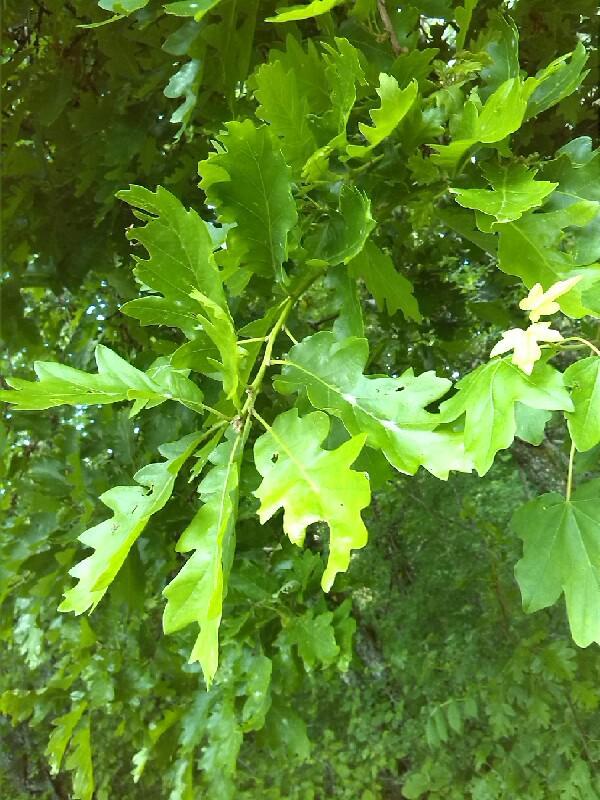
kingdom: Plantae
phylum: Tracheophyta
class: Magnoliopsida
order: Fagales
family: Fagaceae
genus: Quercus
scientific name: Quercus pubescens
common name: Downy oak
